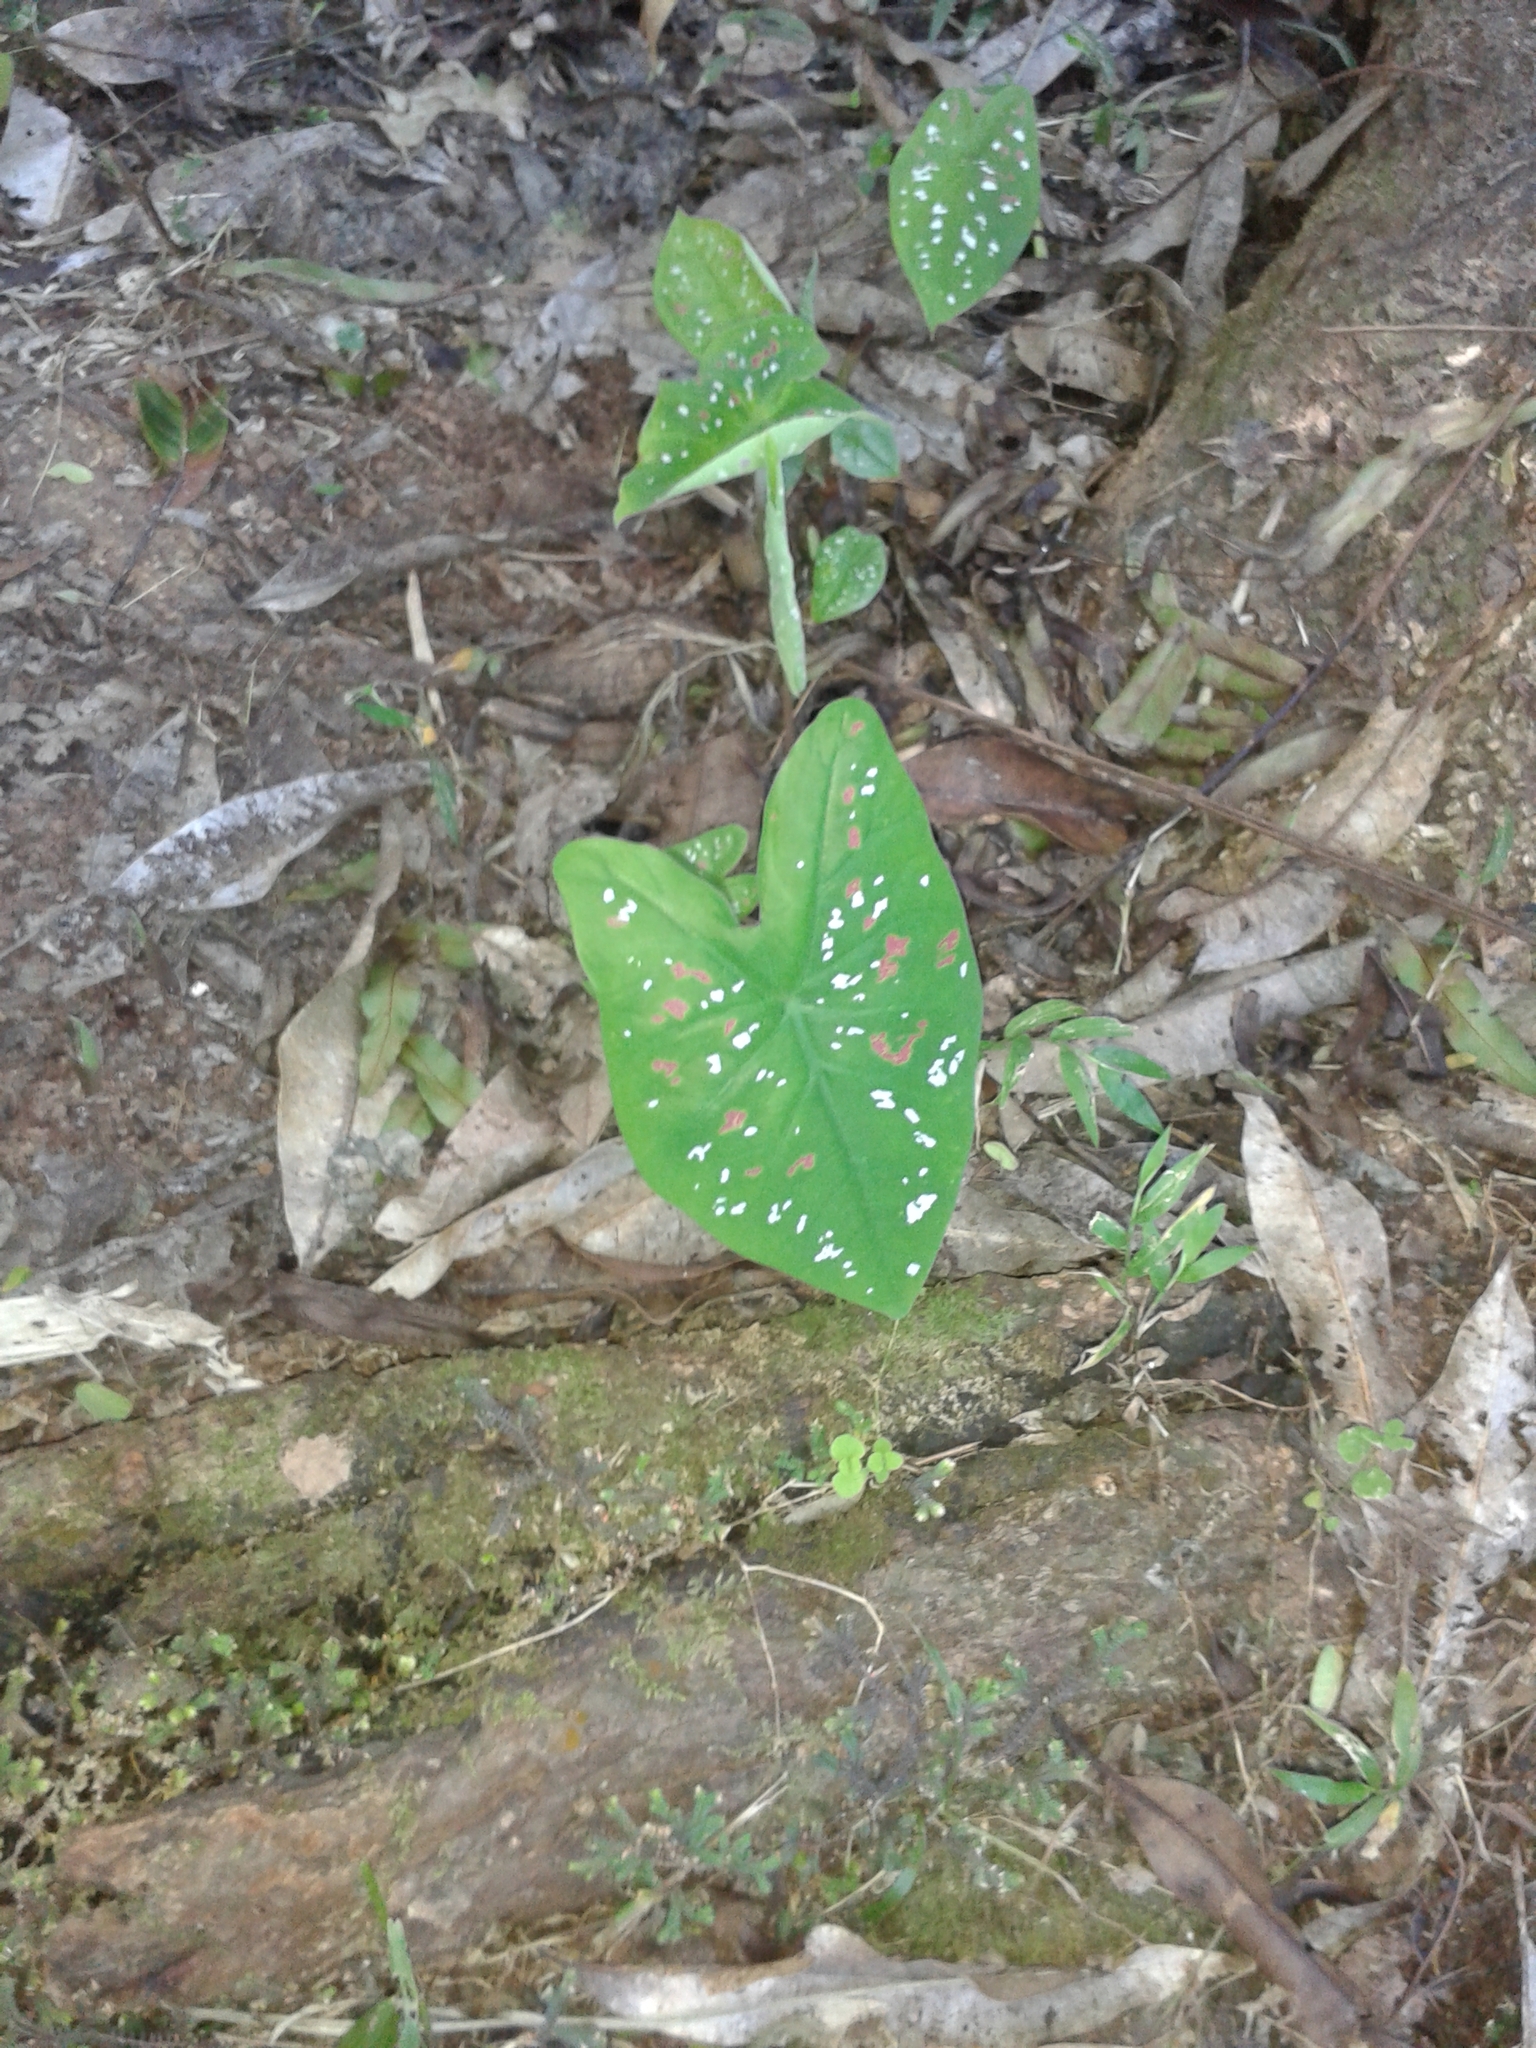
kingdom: Plantae
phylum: Tracheophyta
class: Liliopsida
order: Alismatales
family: Araceae
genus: Caladium
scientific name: Caladium bicolor
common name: Artist's pallet
